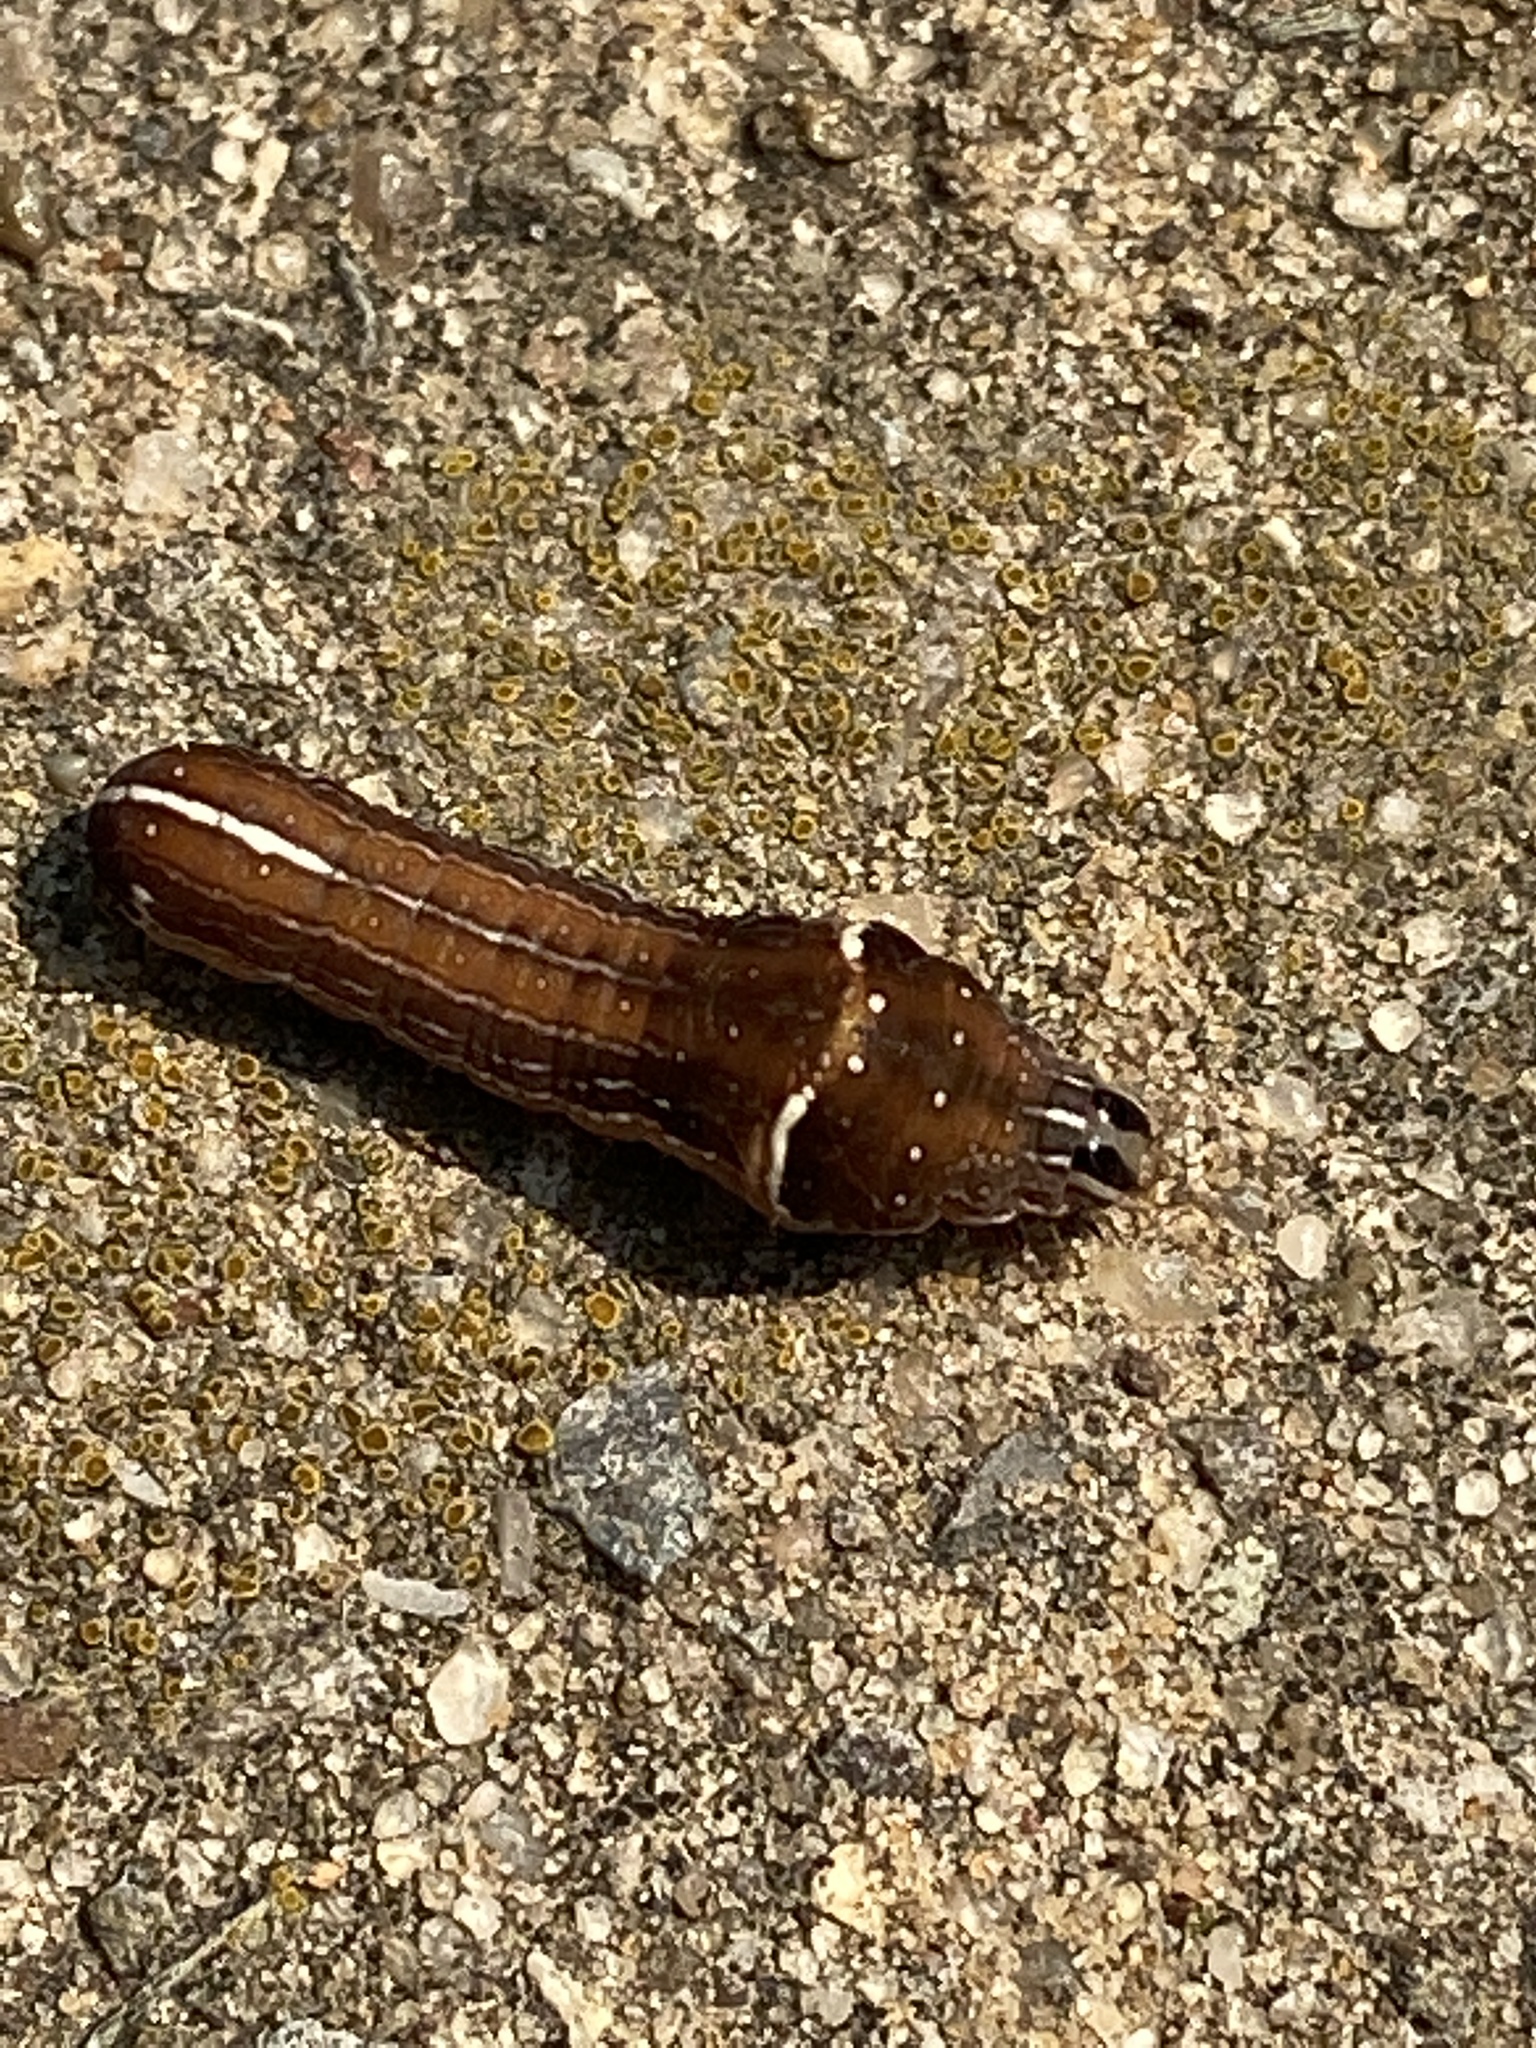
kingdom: Animalia
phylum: Arthropoda
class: Insecta
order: Lepidoptera
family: Noctuidae
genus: Galgula
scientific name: Galgula partita
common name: Wedgeling
